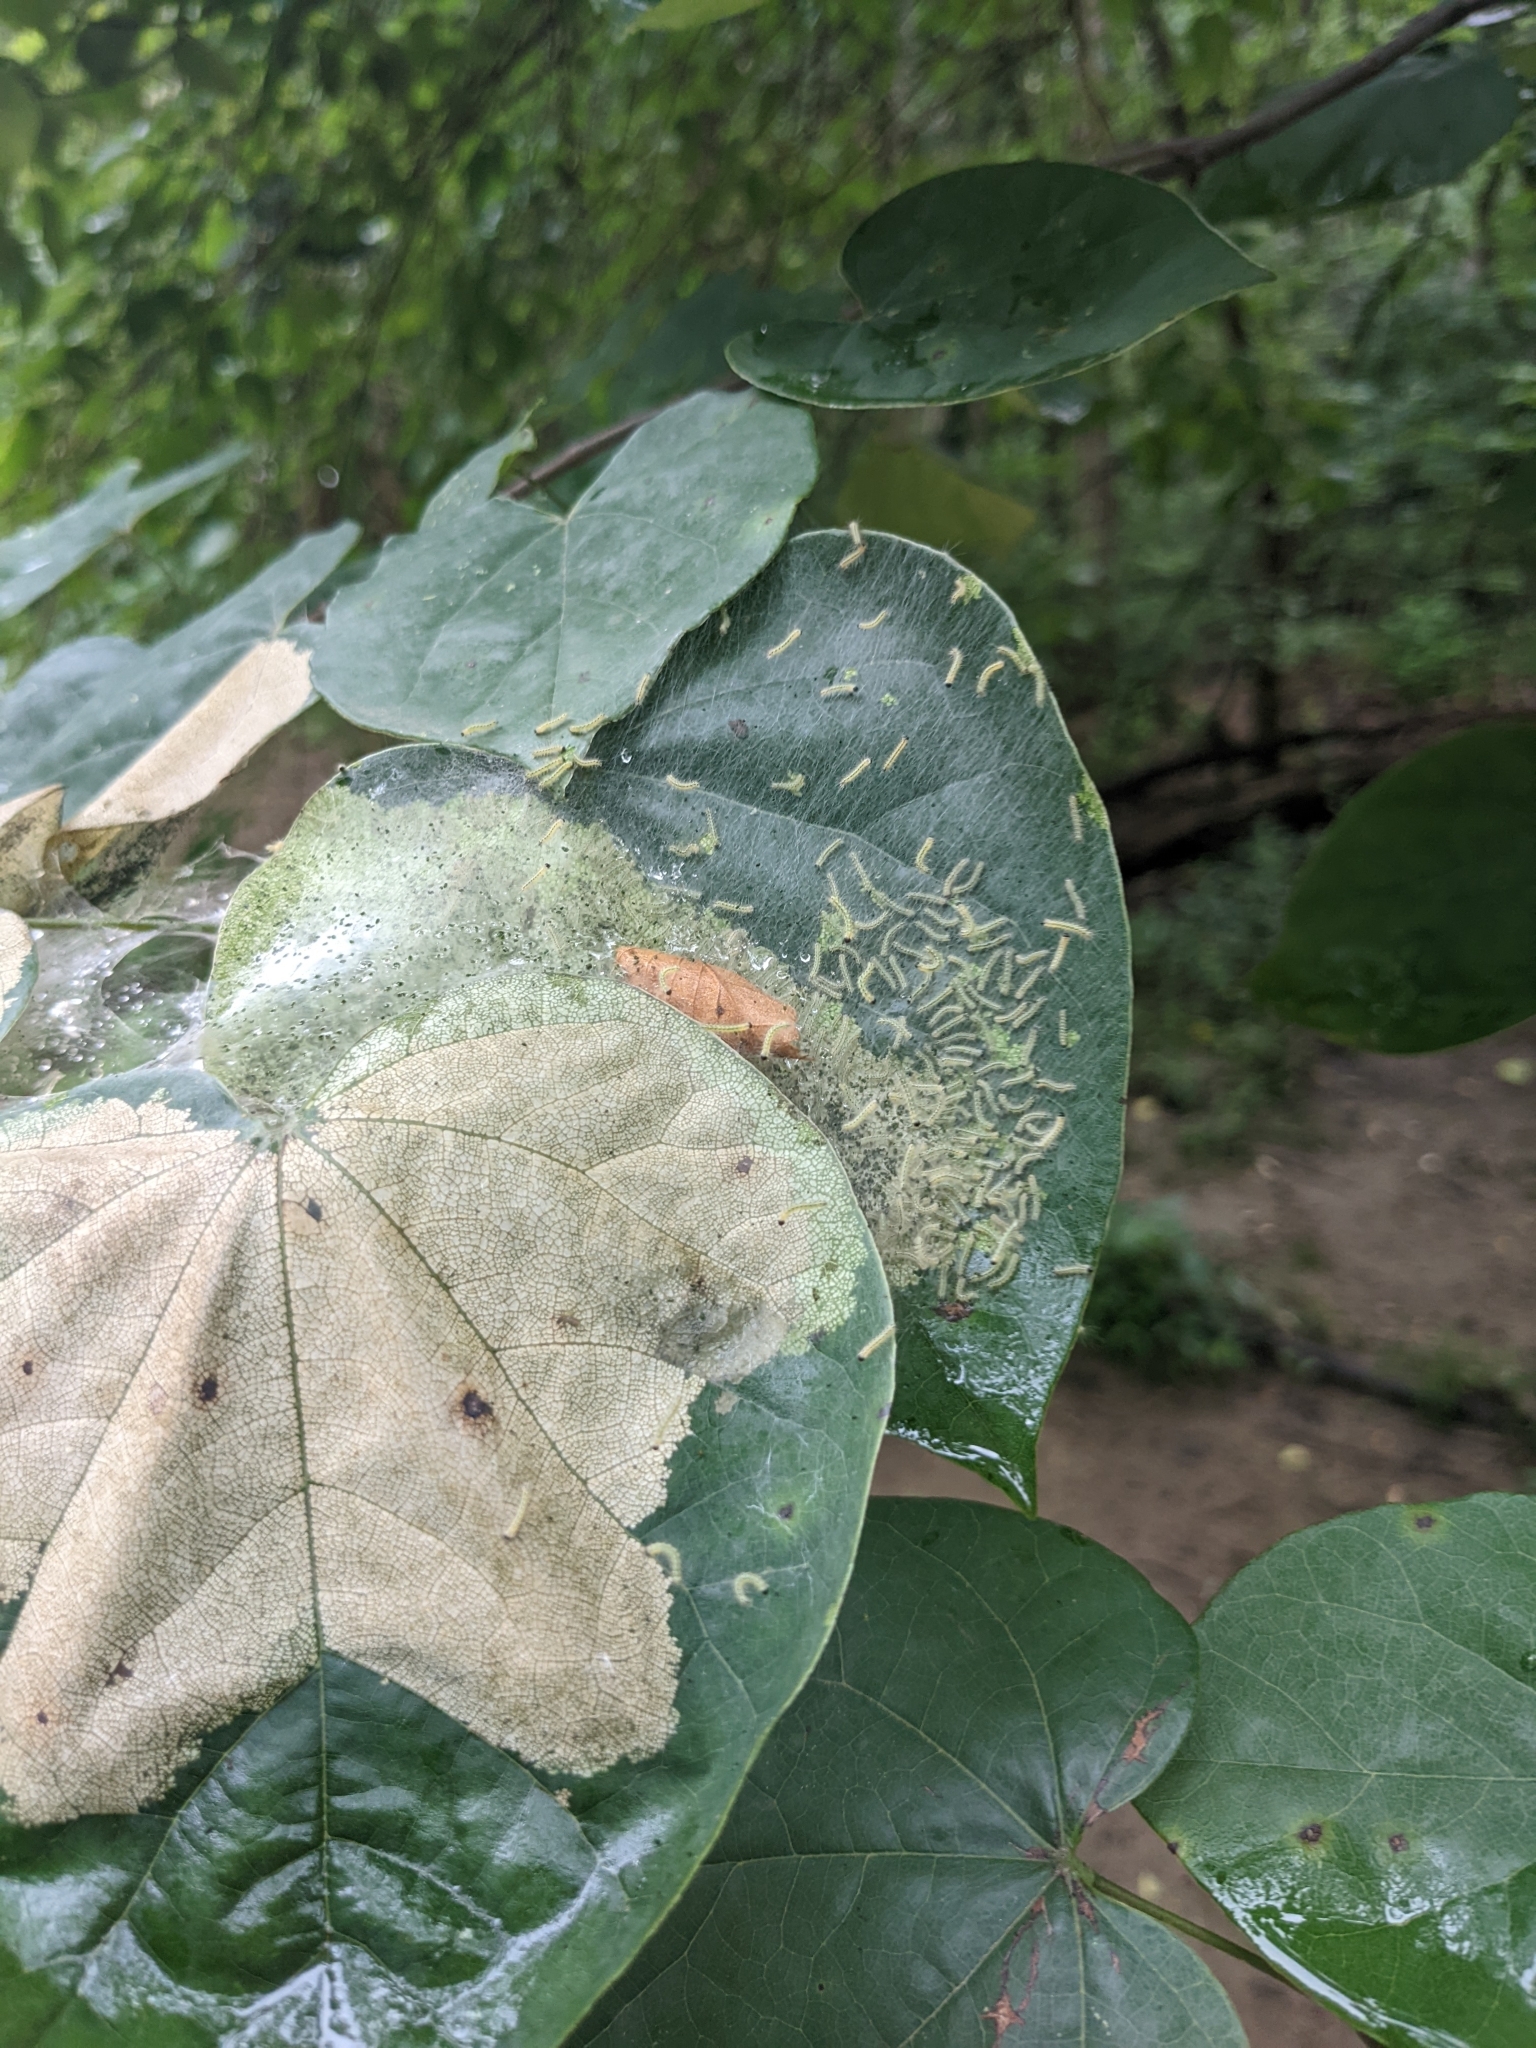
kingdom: Animalia
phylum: Arthropoda
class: Insecta
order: Lepidoptera
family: Erebidae
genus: Hyphantria
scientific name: Hyphantria cunea
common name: American white moth
